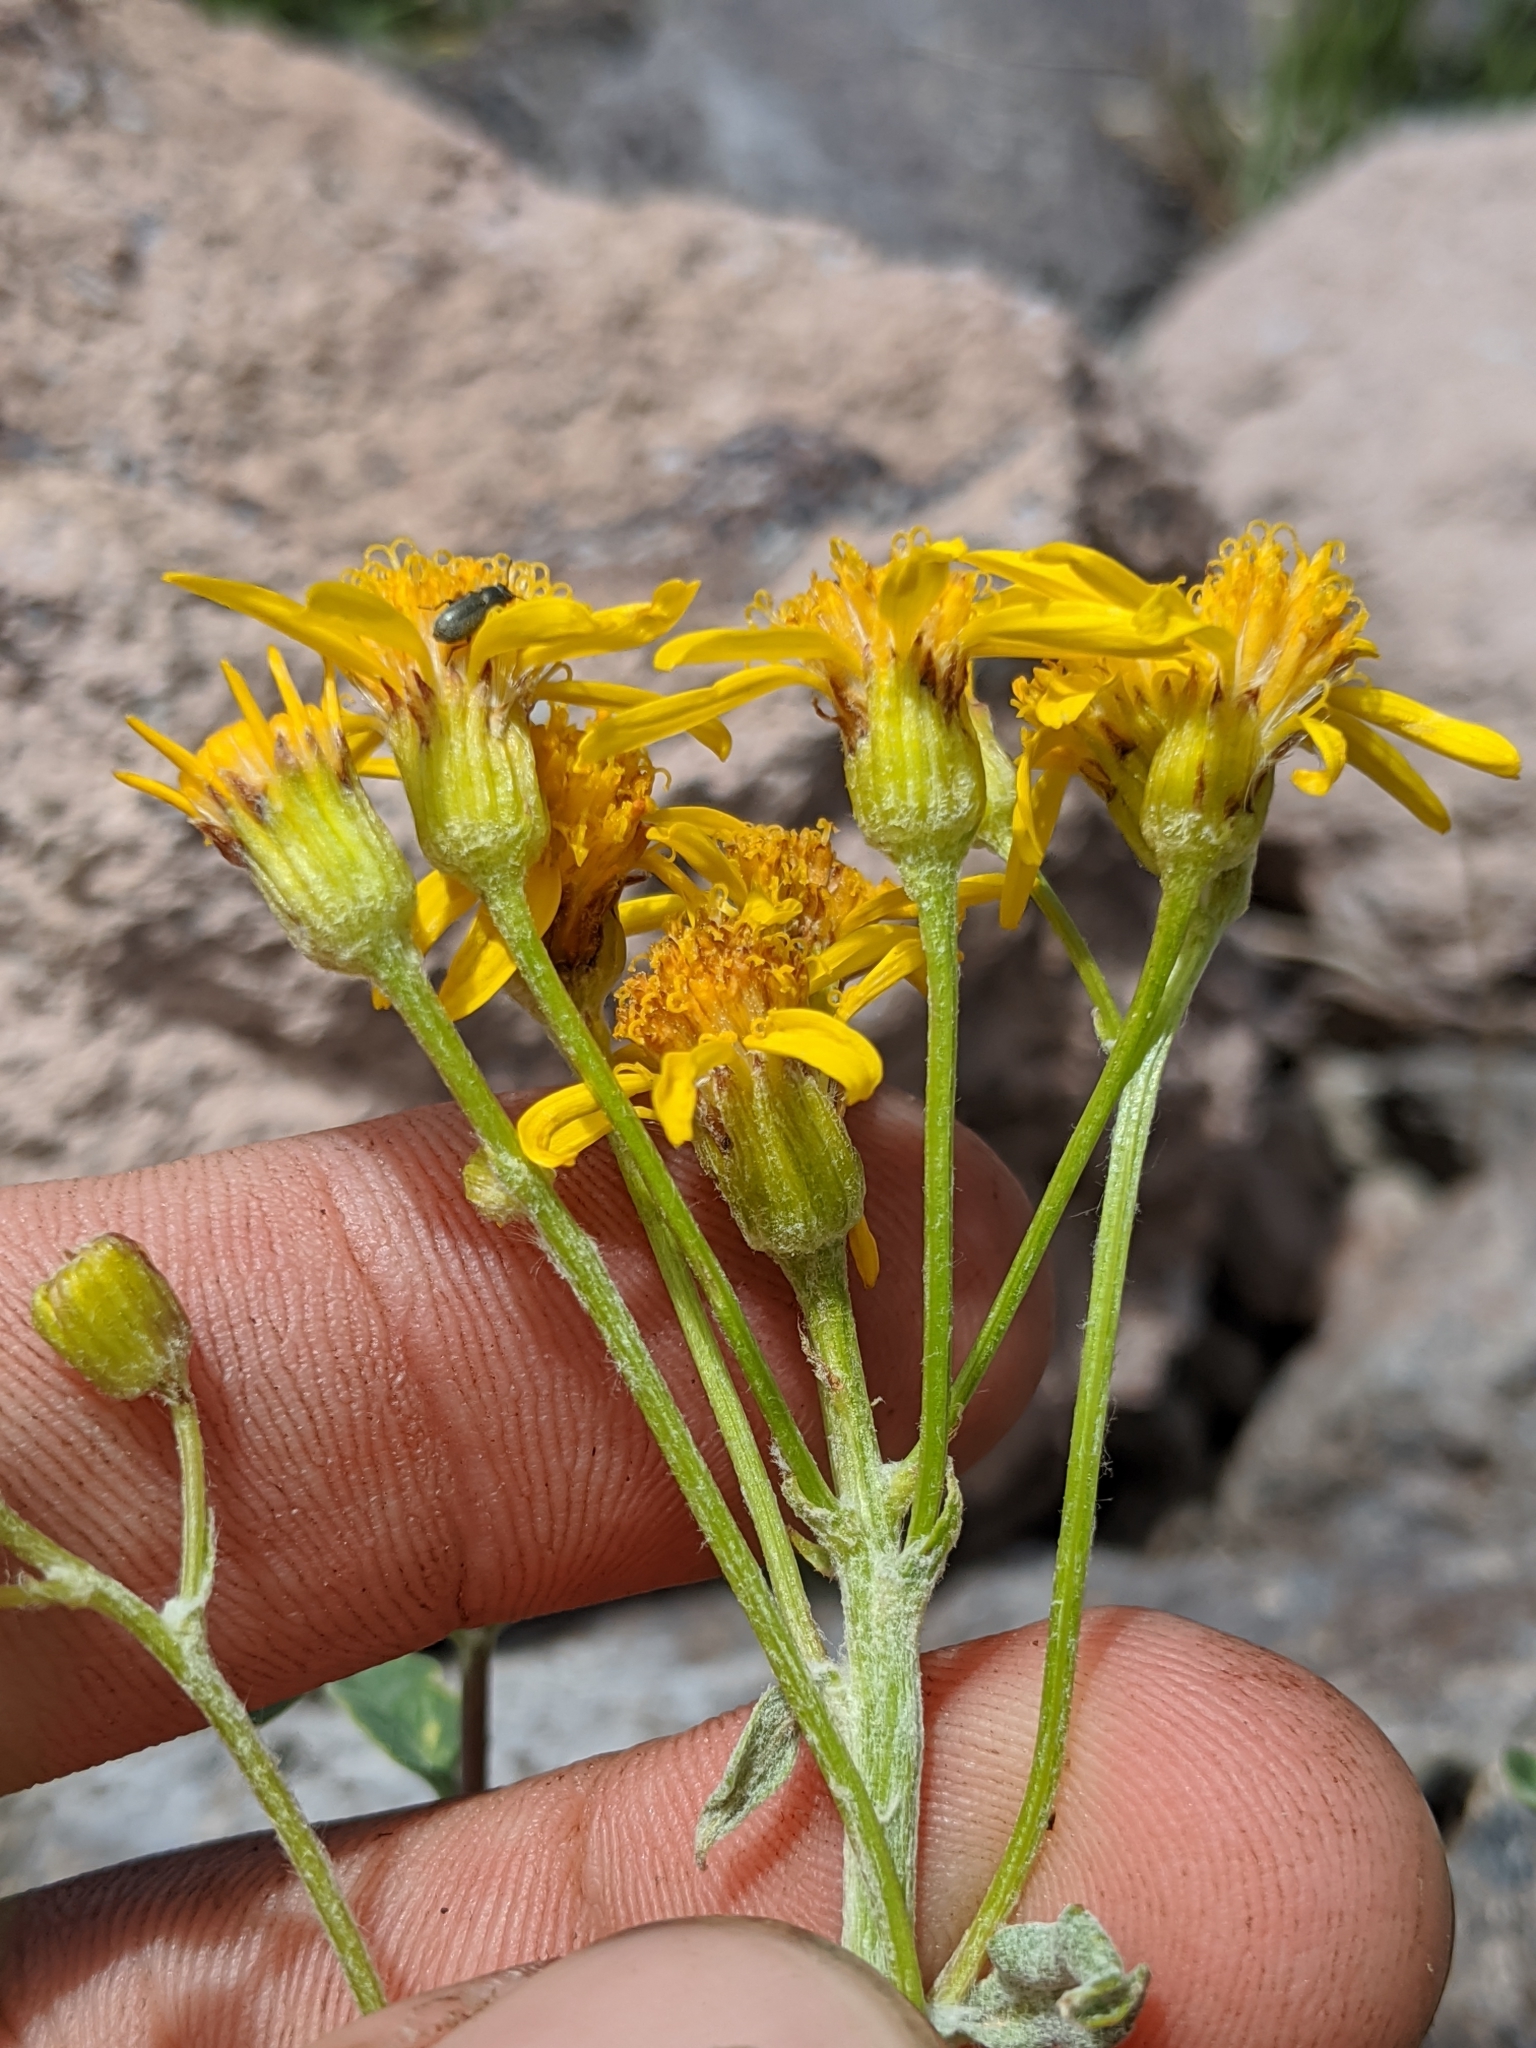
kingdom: Plantae
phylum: Tracheophyta
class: Magnoliopsida
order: Asterales
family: Asteraceae
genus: Packera
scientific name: Packera cana
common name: Woolly groundsel
